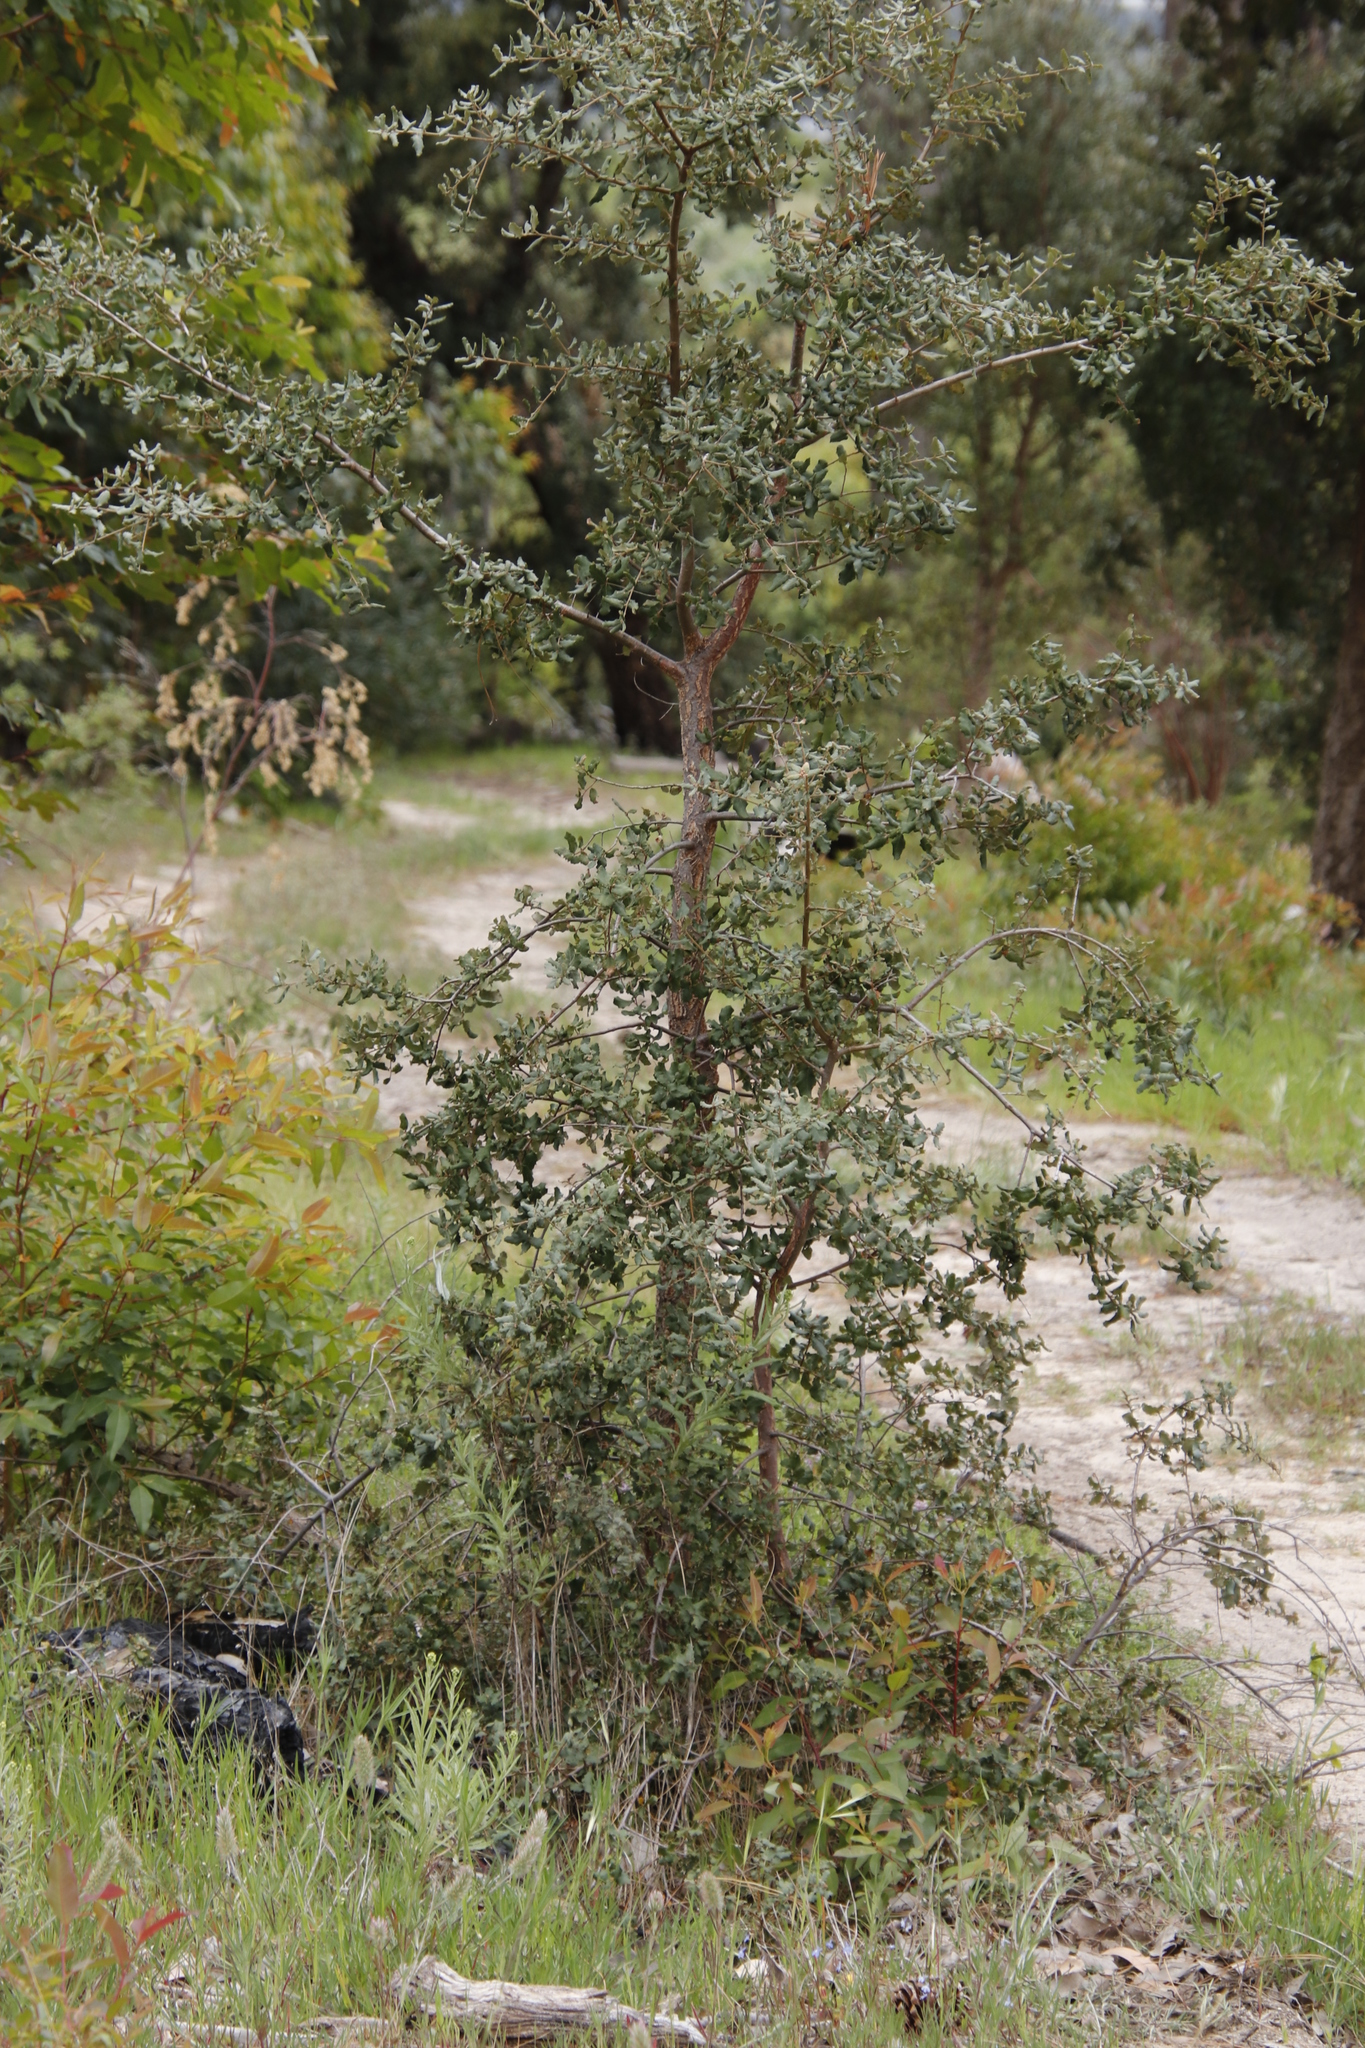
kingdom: Plantae
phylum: Tracheophyta
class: Magnoliopsida
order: Fagales
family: Fagaceae
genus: Quercus
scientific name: Quercus suber
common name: Cork oak
